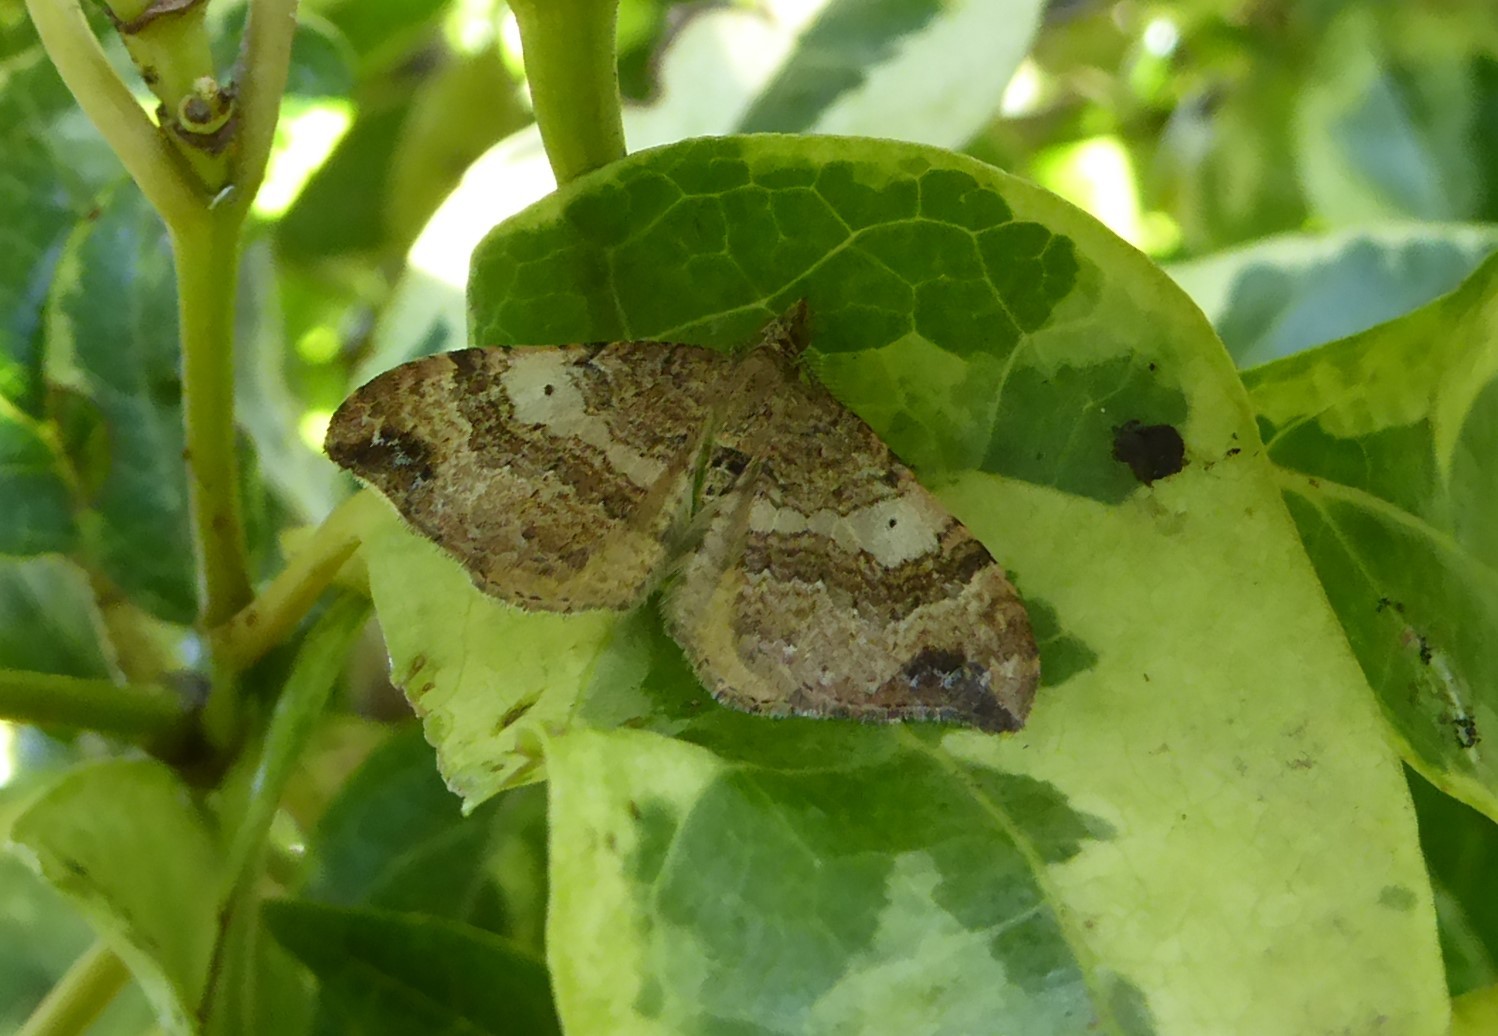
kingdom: Animalia
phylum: Arthropoda
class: Insecta
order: Lepidoptera
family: Geometridae
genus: Homodotis
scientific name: Homodotis megaspilata
